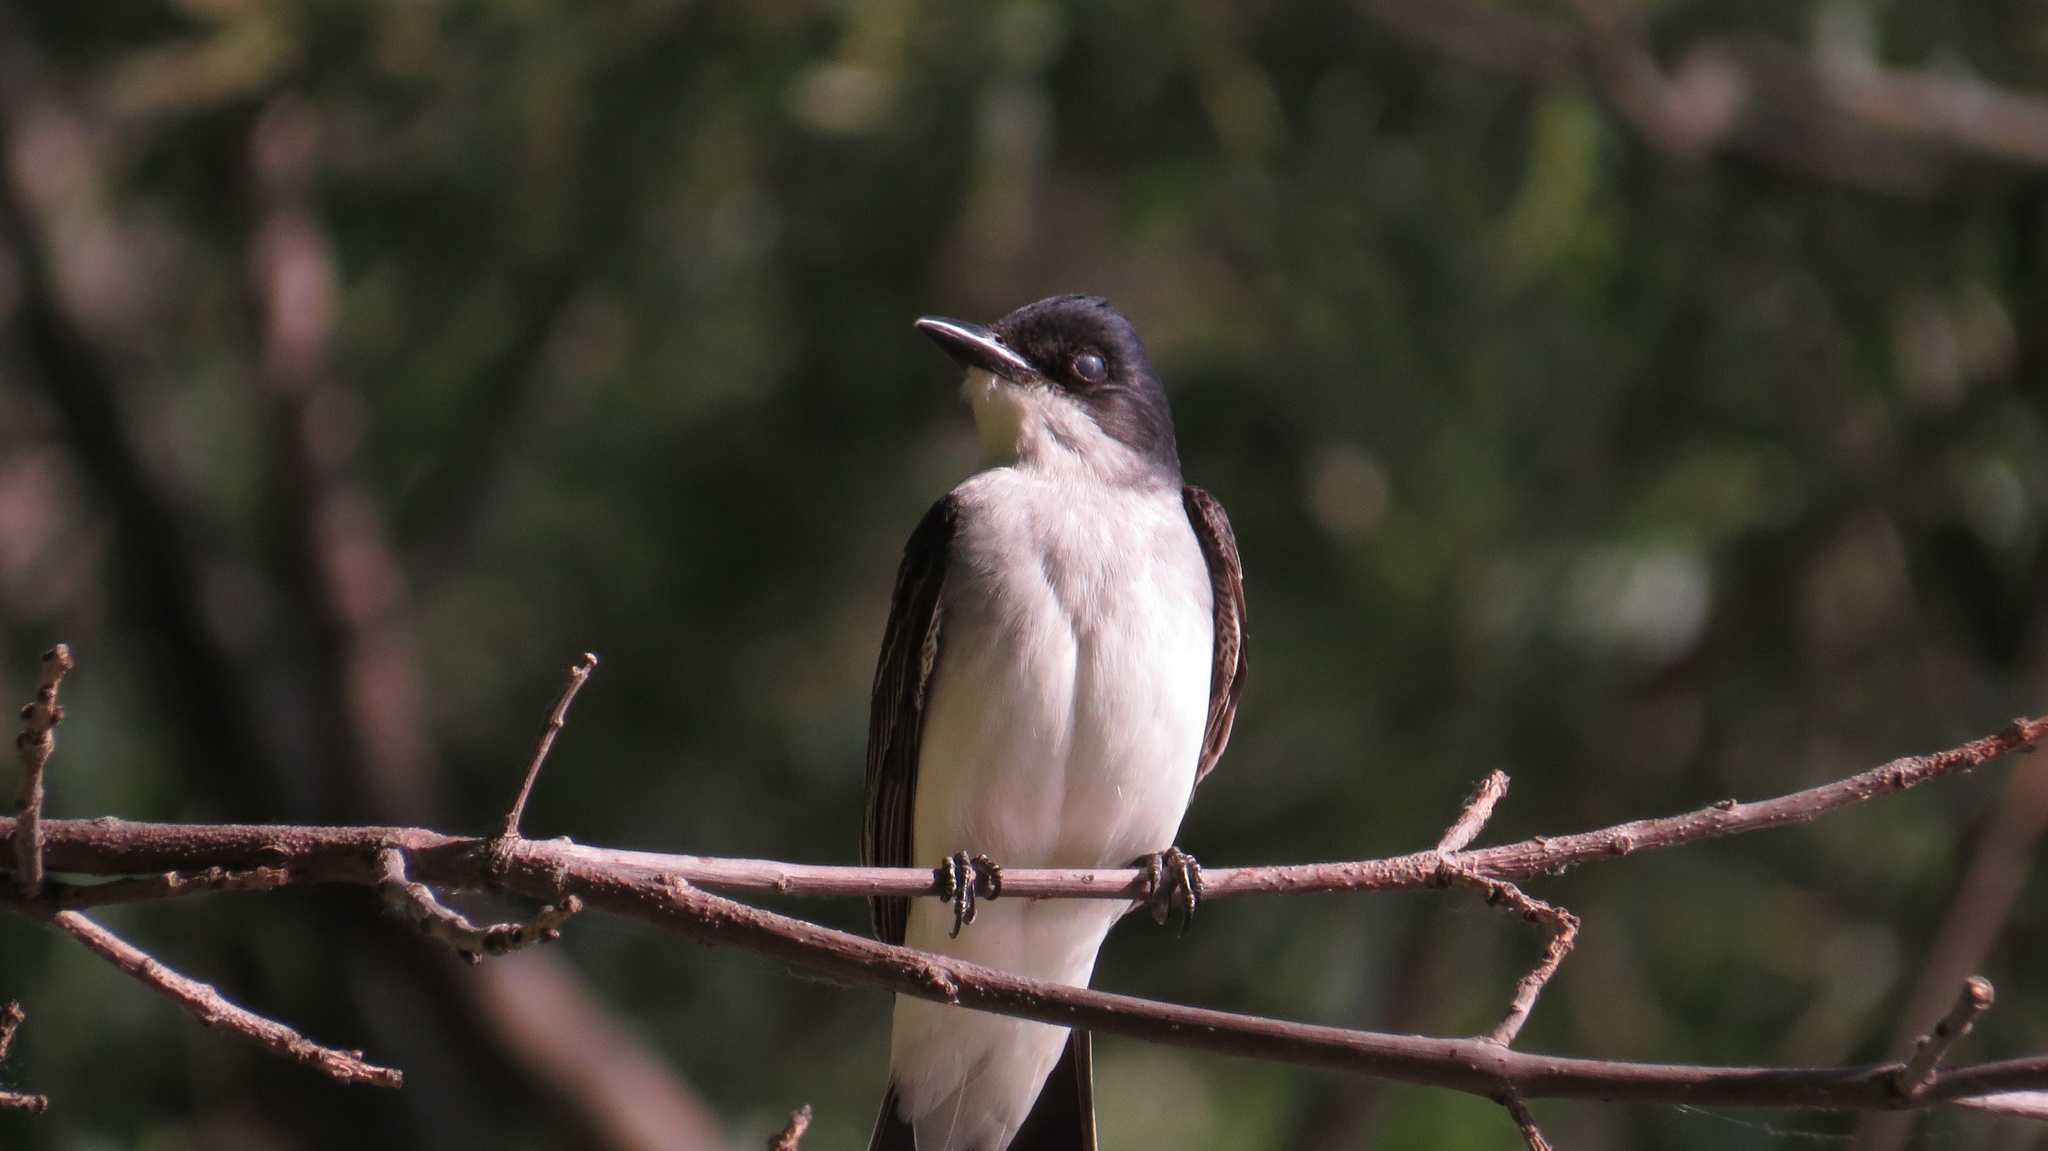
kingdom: Animalia
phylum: Chordata
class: Aves
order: Passeriformes
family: Tyrannidae
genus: Tyrannus
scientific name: Tyrannus tyrannus
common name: Eastern kingbird
